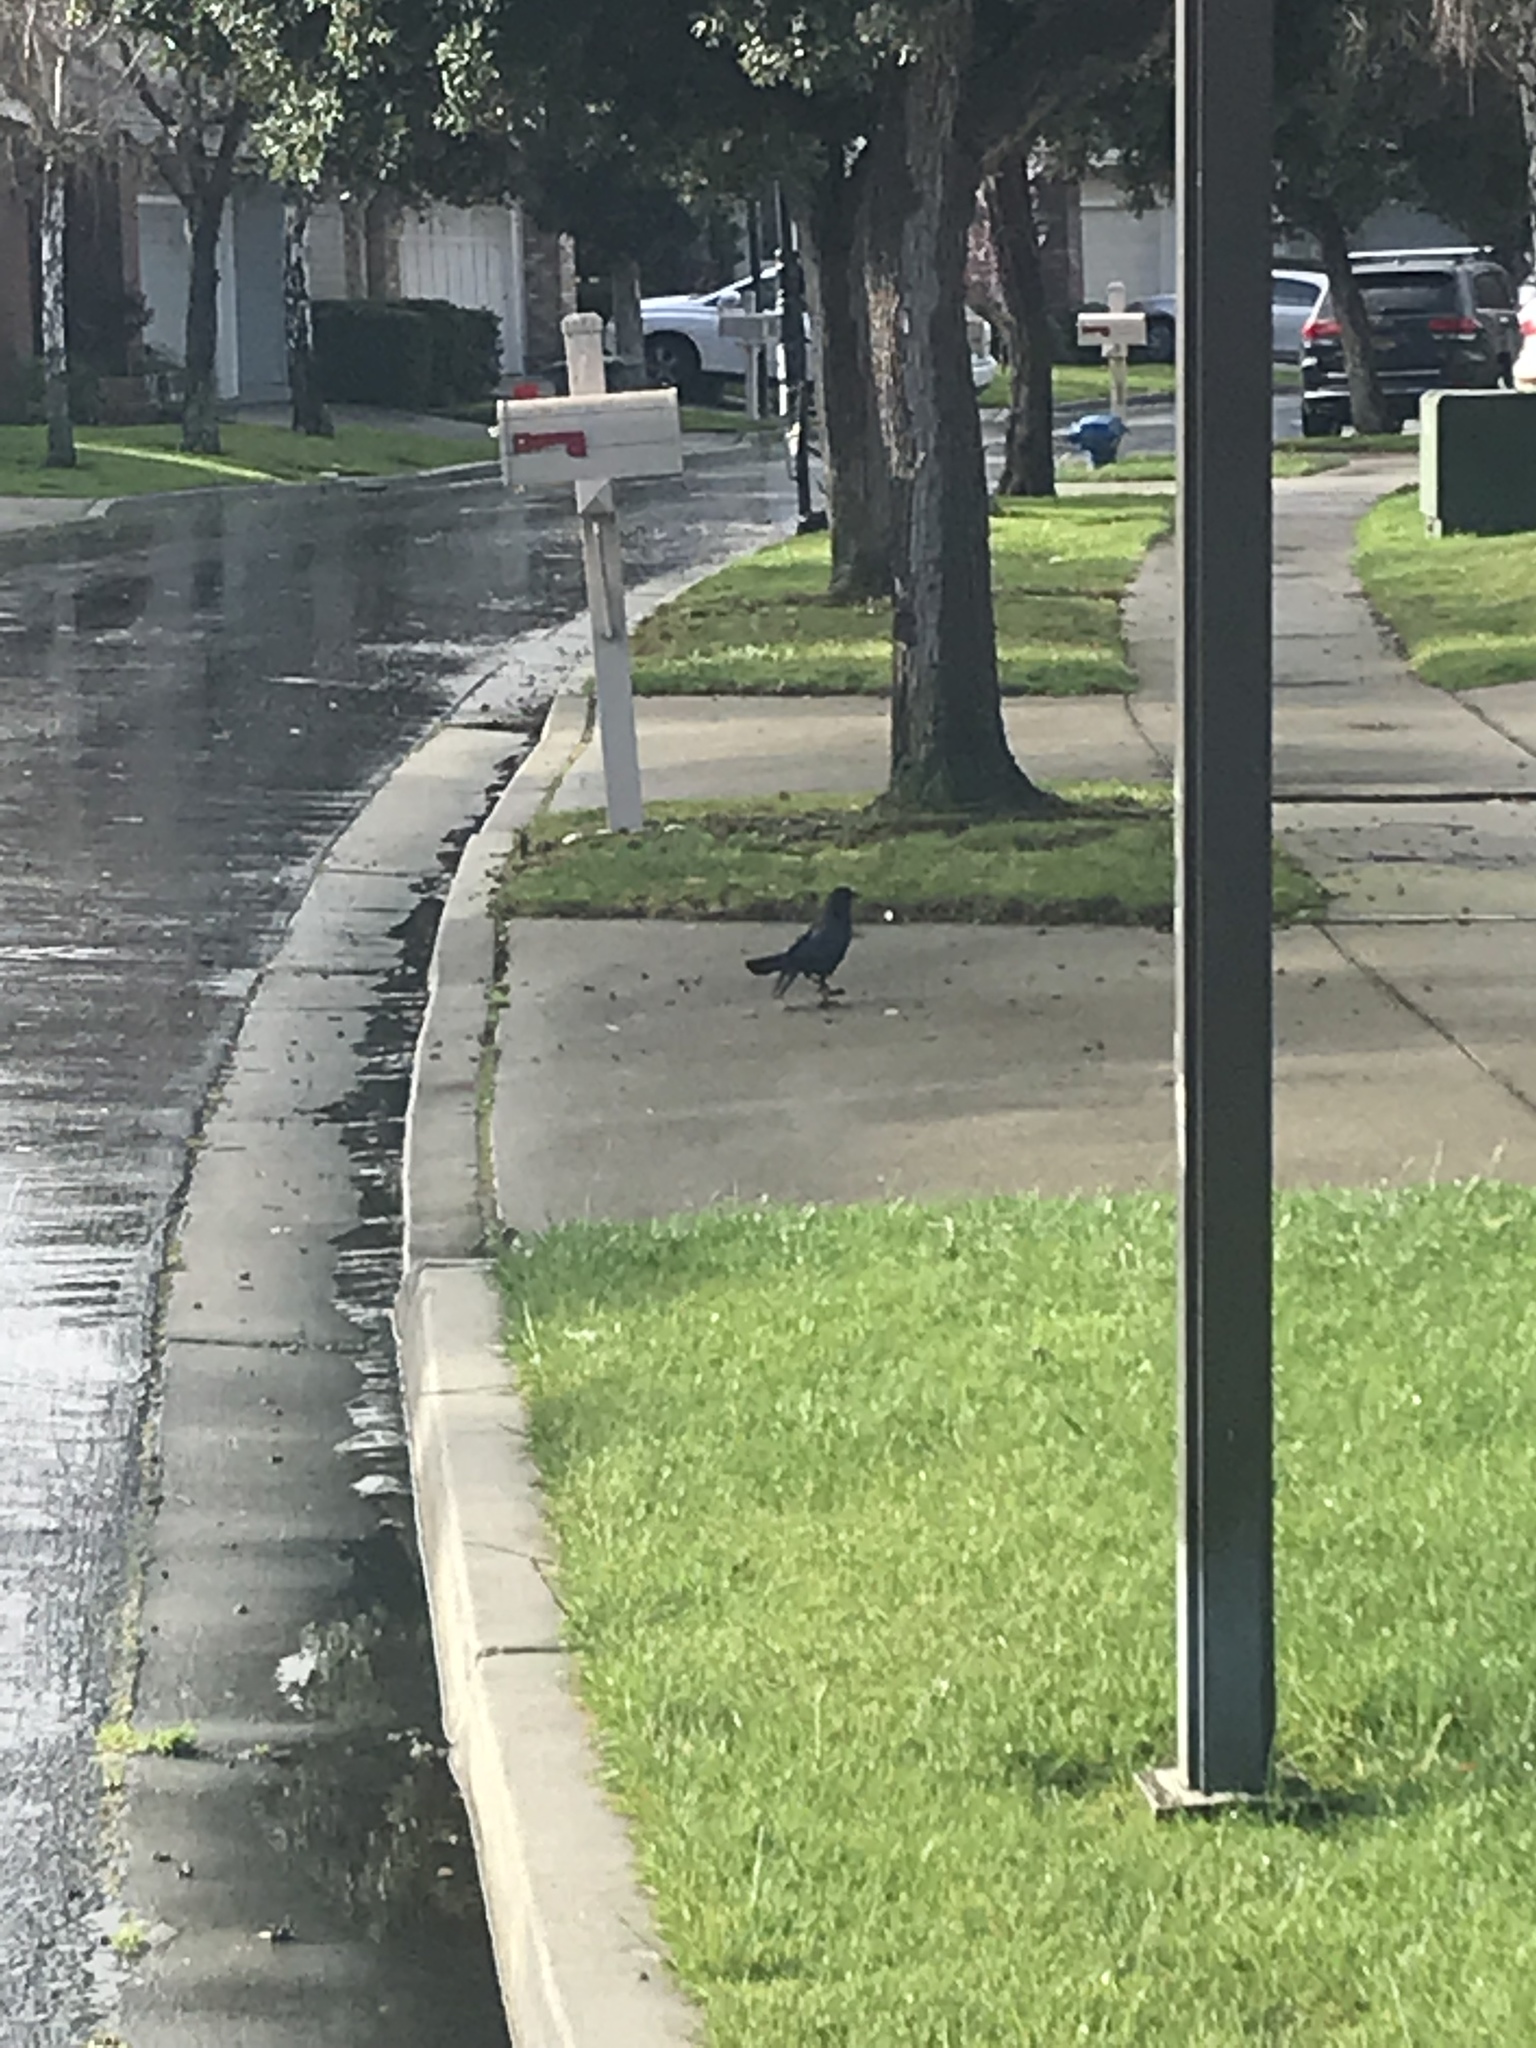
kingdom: Animalia
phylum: Chordata
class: Aves
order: Passeriformes
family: Corvidae
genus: Corvus
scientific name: Corvus brachyrhynchos
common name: American crow
